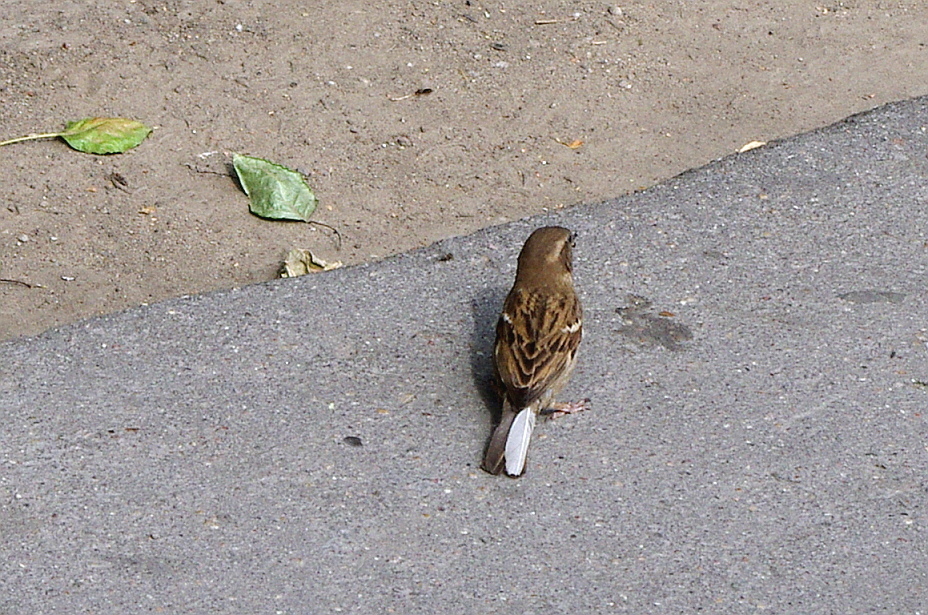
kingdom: Animalia
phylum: Chordata
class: Aves
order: Passeriformes
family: Passeridae
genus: Passer
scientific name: Passer domesticus
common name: House sparrow
